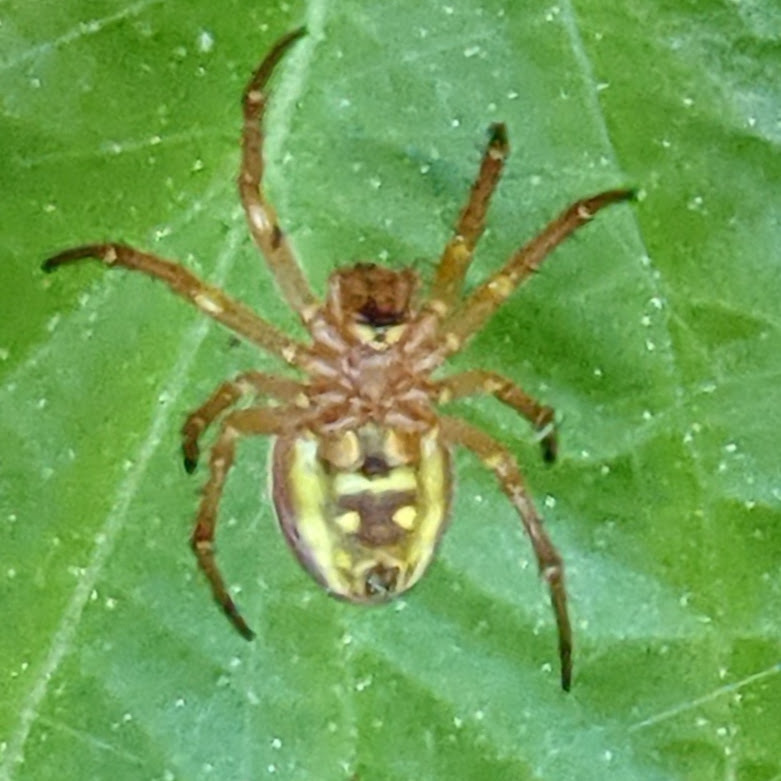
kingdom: Animalia
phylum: Arthropoda
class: Arachnida
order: Araneae
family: Araneidae
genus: Araniella
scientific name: Araniella displicata
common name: Sixspotted orb weaver
